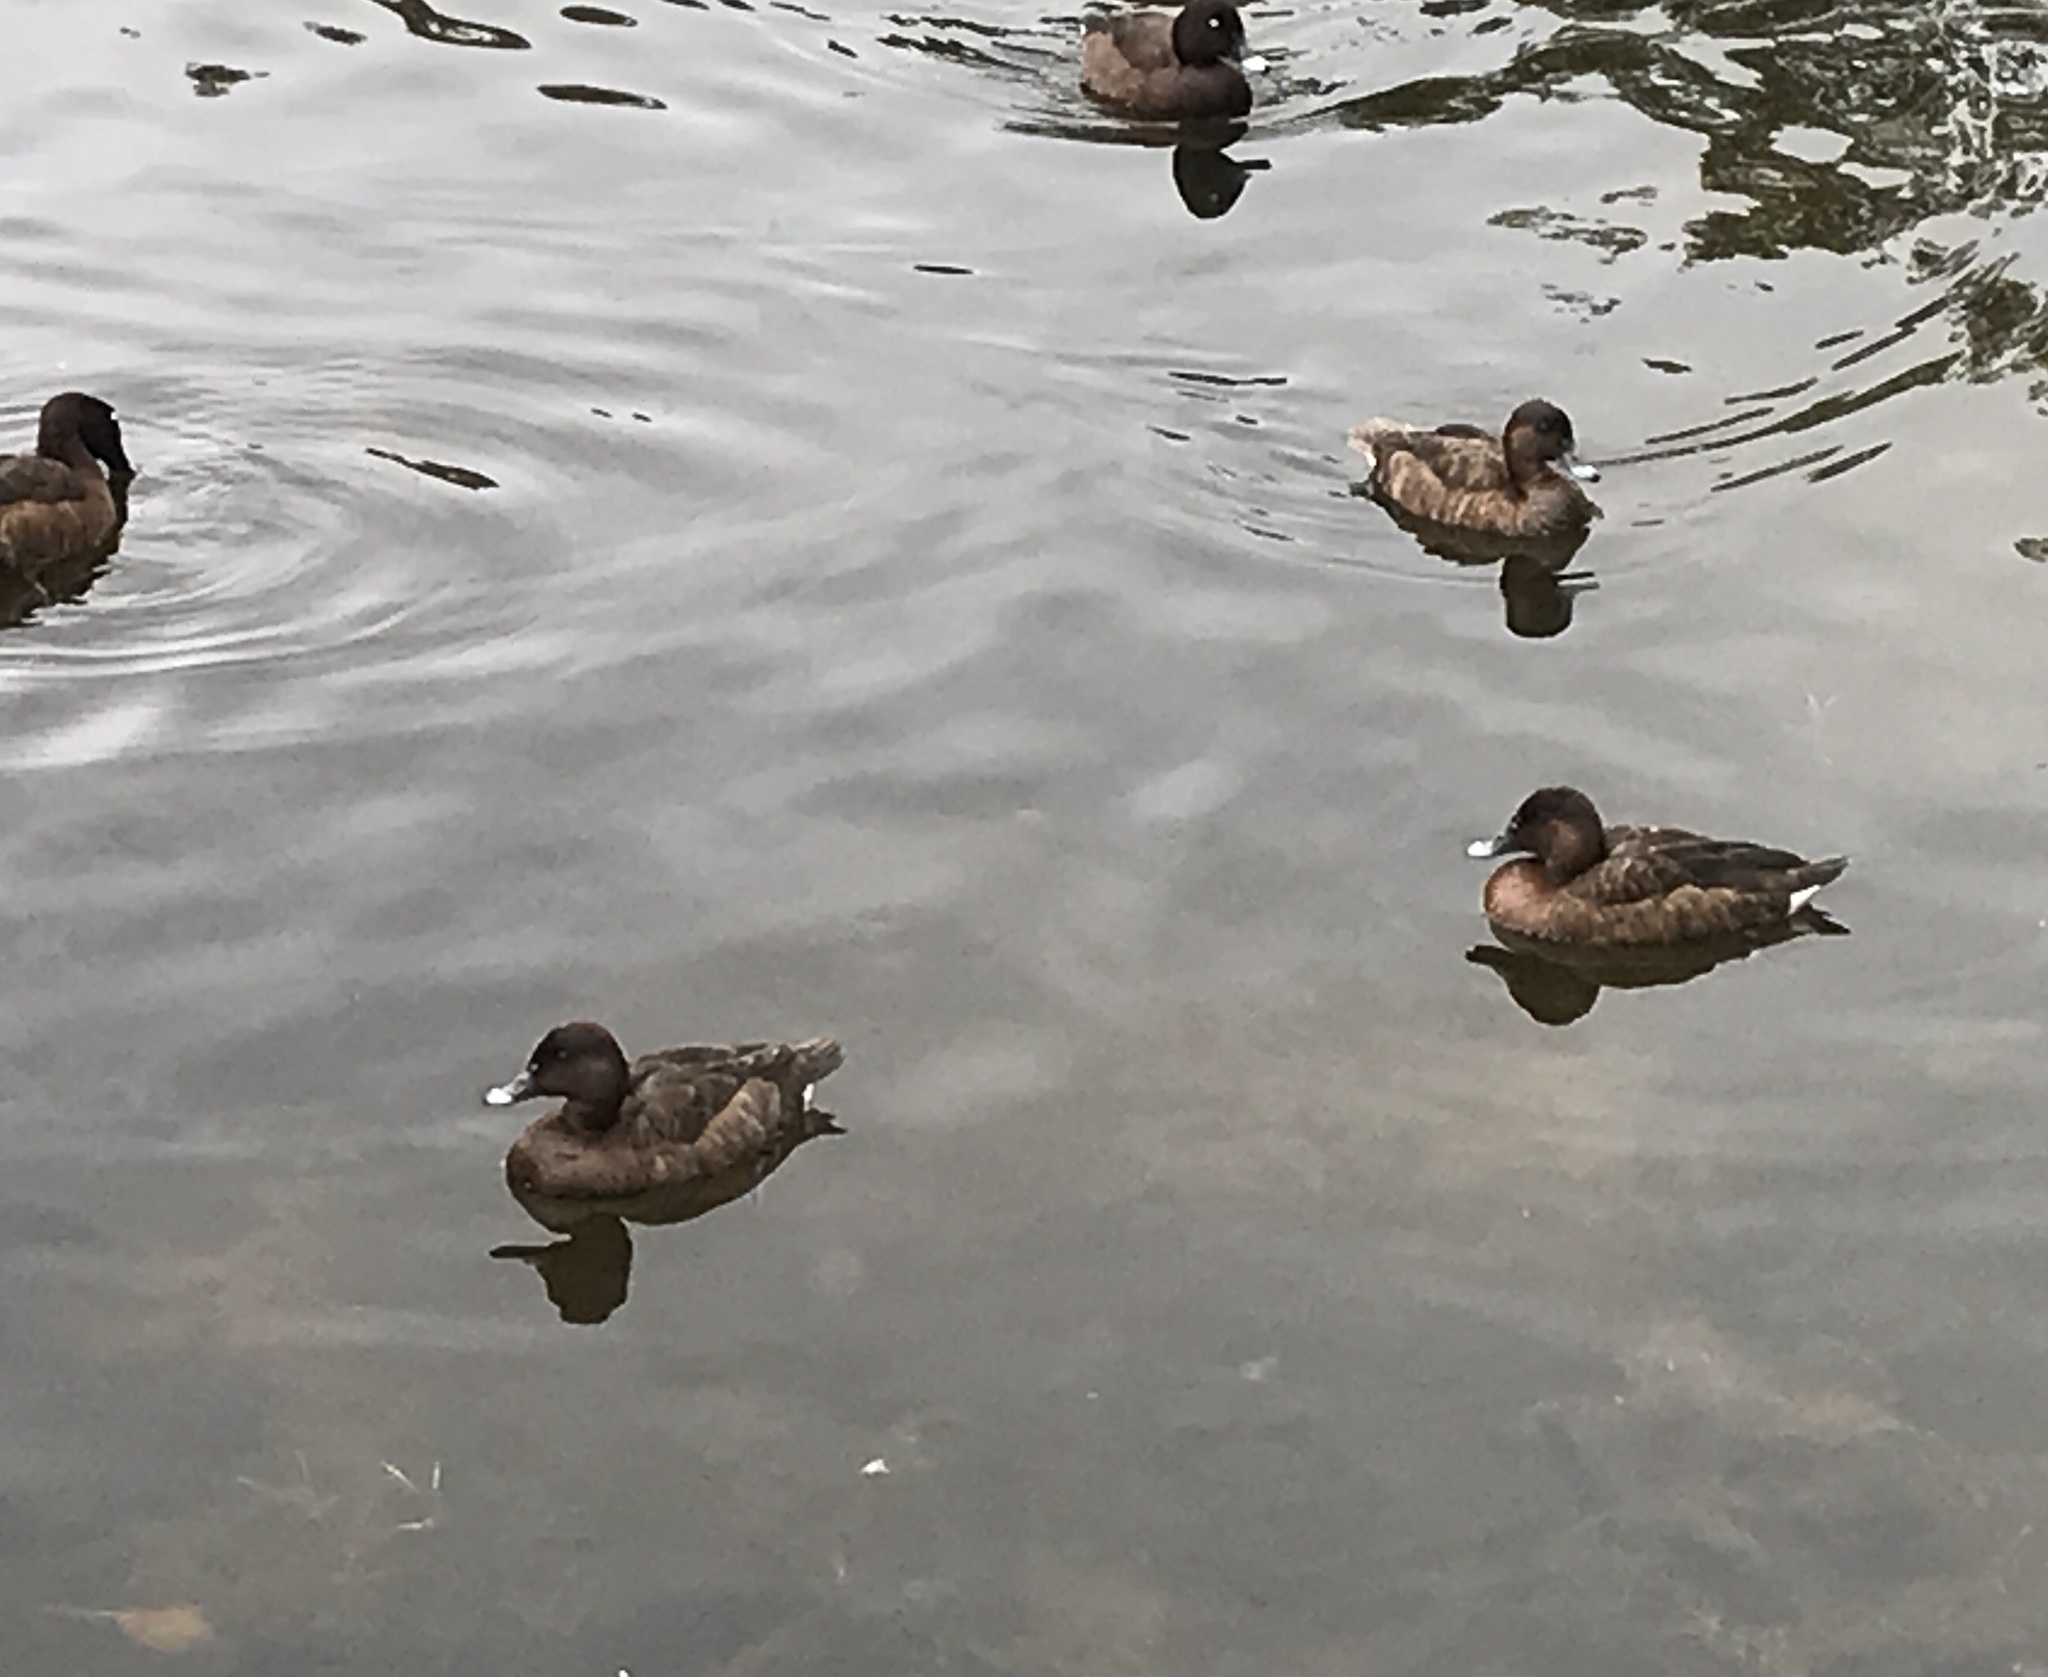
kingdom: Animalia
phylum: Chordata
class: Aves
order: Anseriformes
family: Anatidae
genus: Aythya
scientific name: Aythya australis
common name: Hardhead
